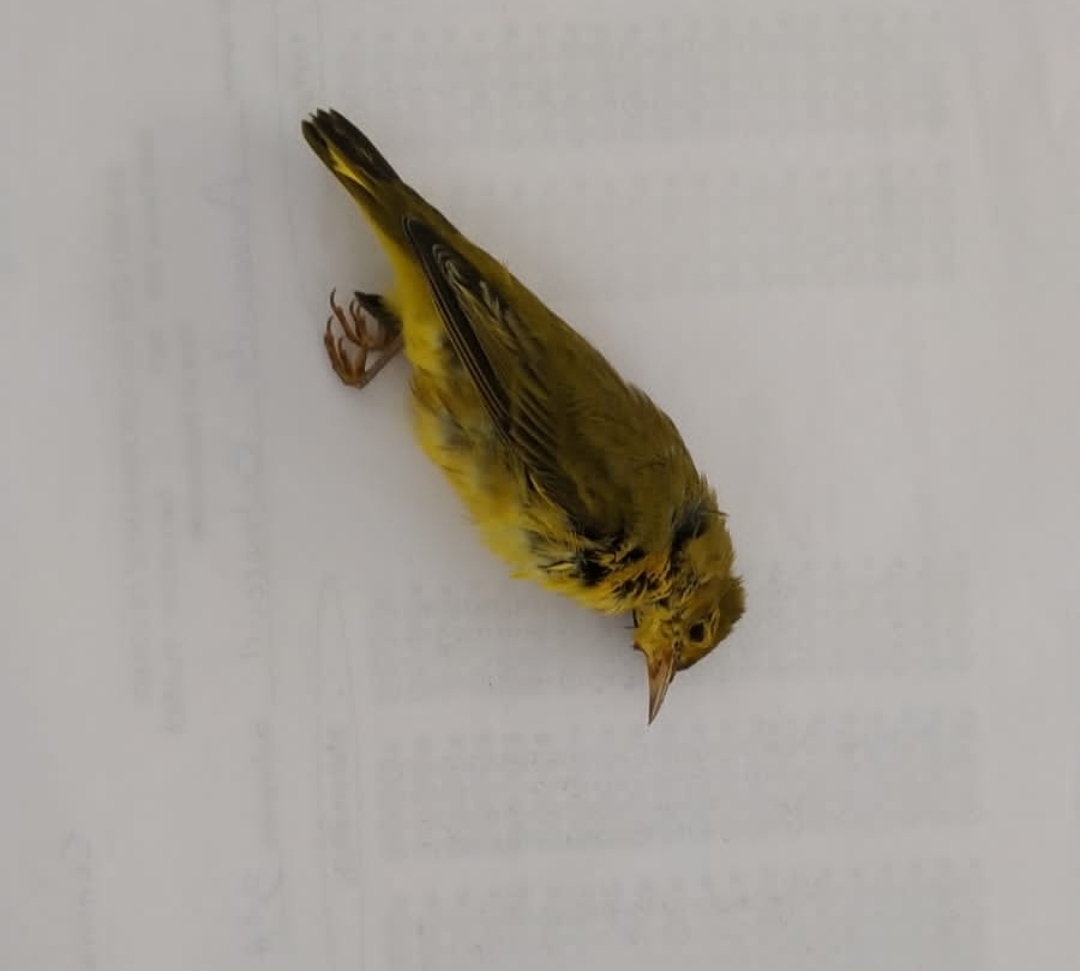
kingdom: Animalia
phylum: Chordata
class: Aves
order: Passeriformes
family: Parulidae
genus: Cardellina
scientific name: Cardellina pusilla
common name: Wilson's warbler
